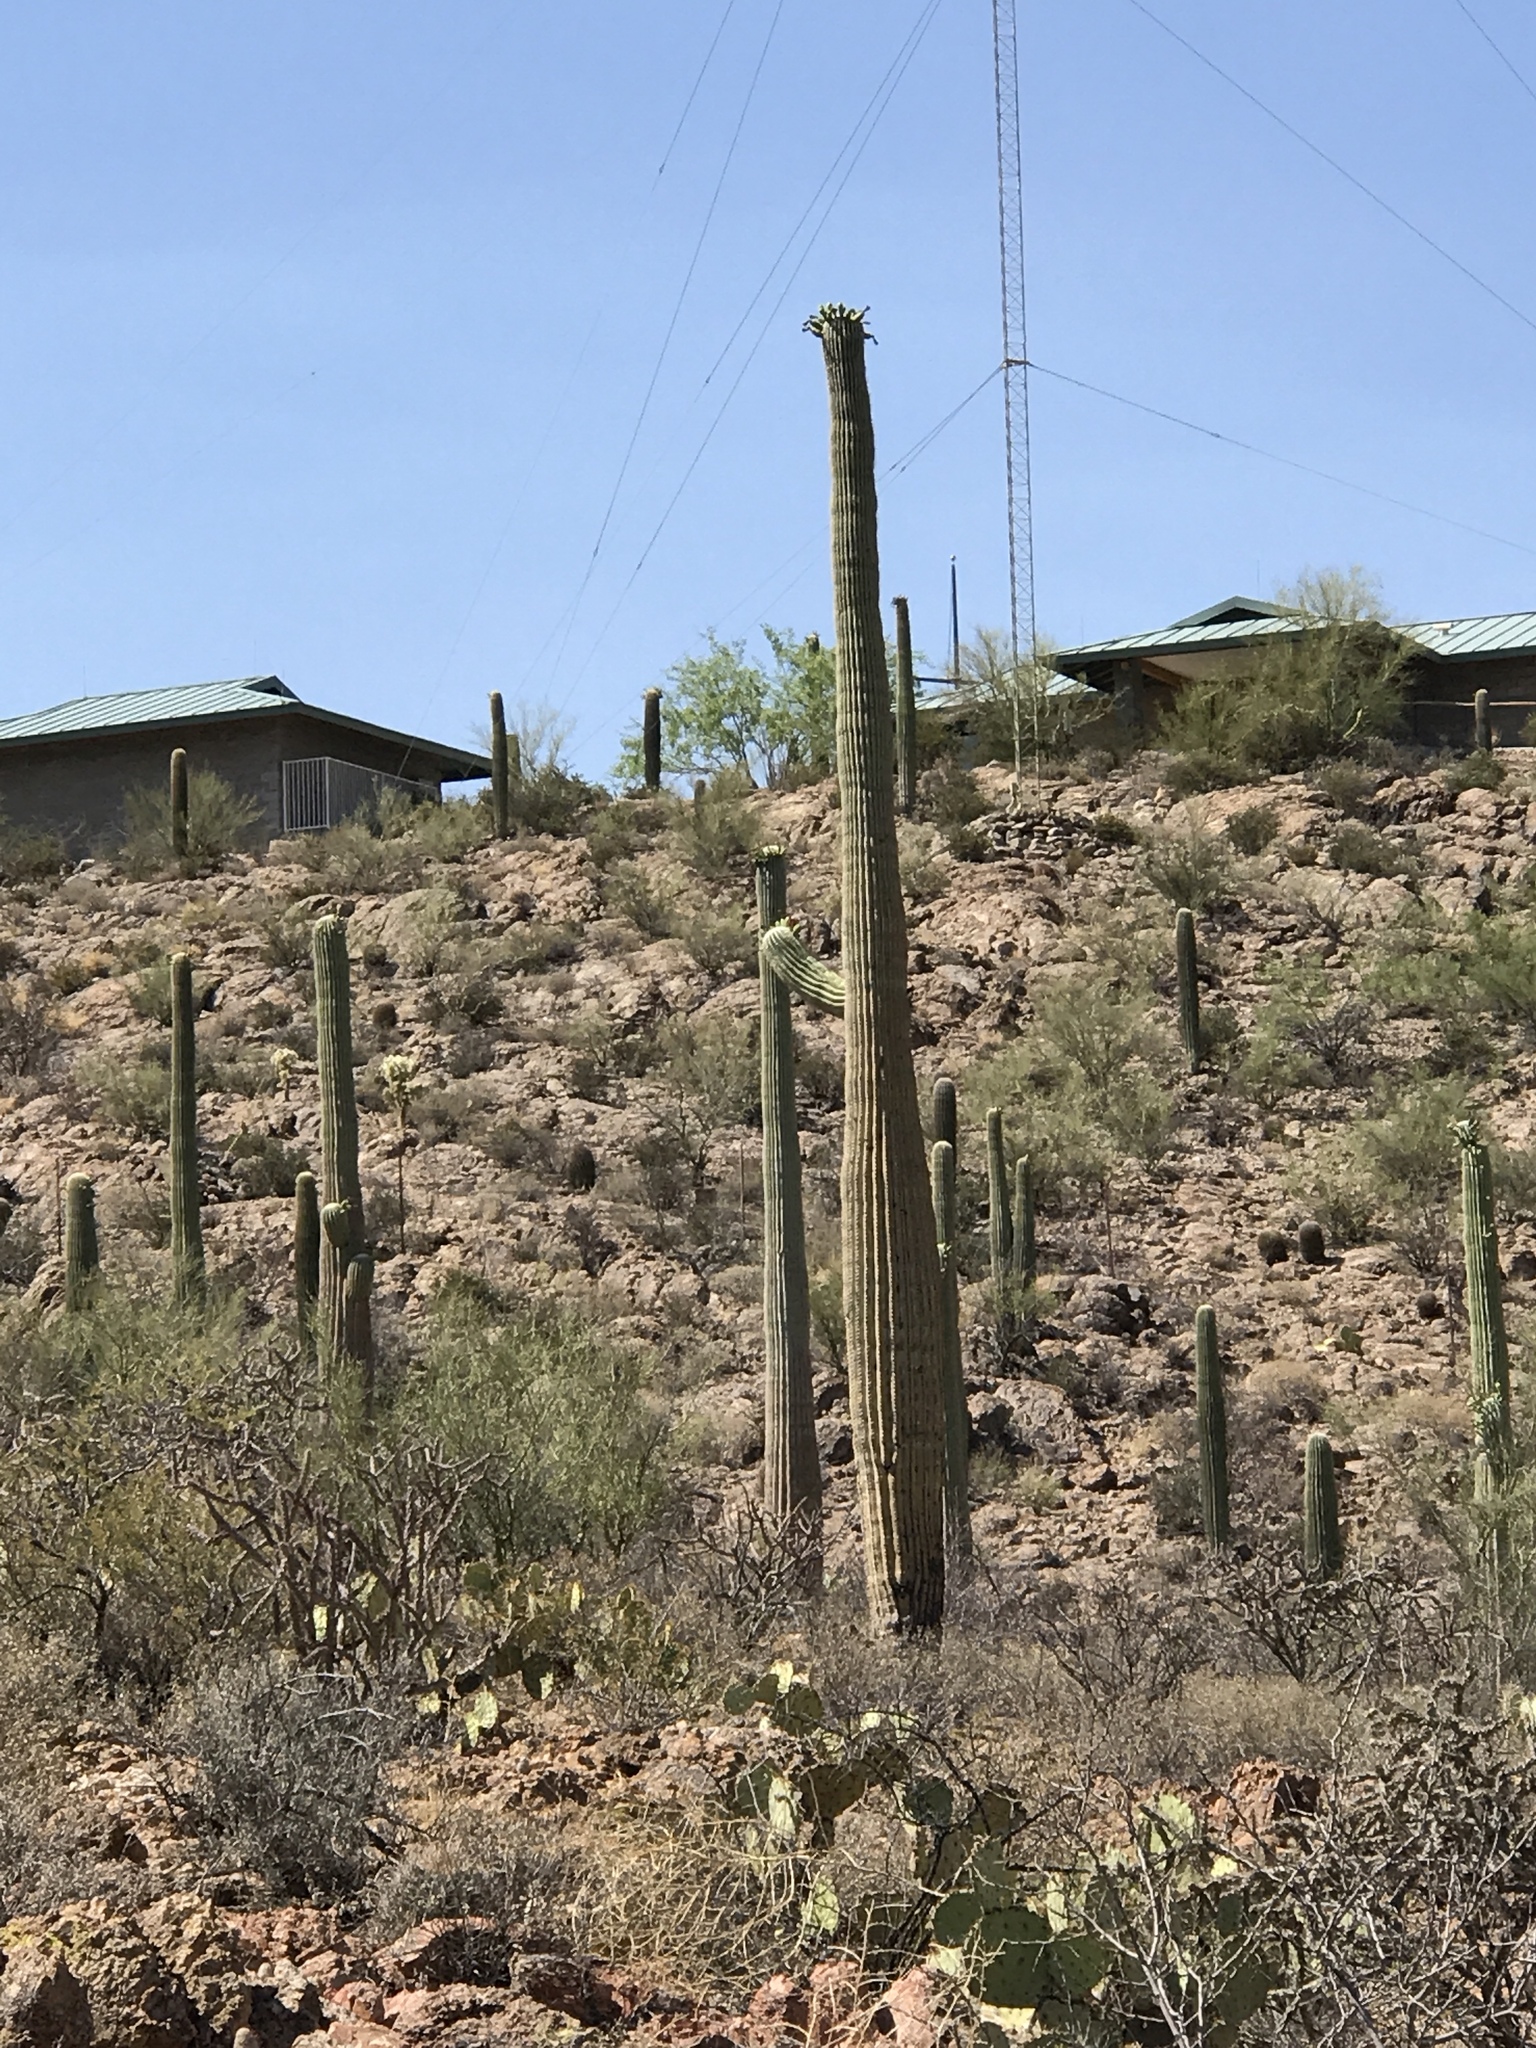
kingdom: Plantae
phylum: Tracheophyta
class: Magnoliopsida
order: Caryophyllales
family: Cactaceae
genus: Carnegiea
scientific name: Carnegiea gigantea
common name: Saguaro
